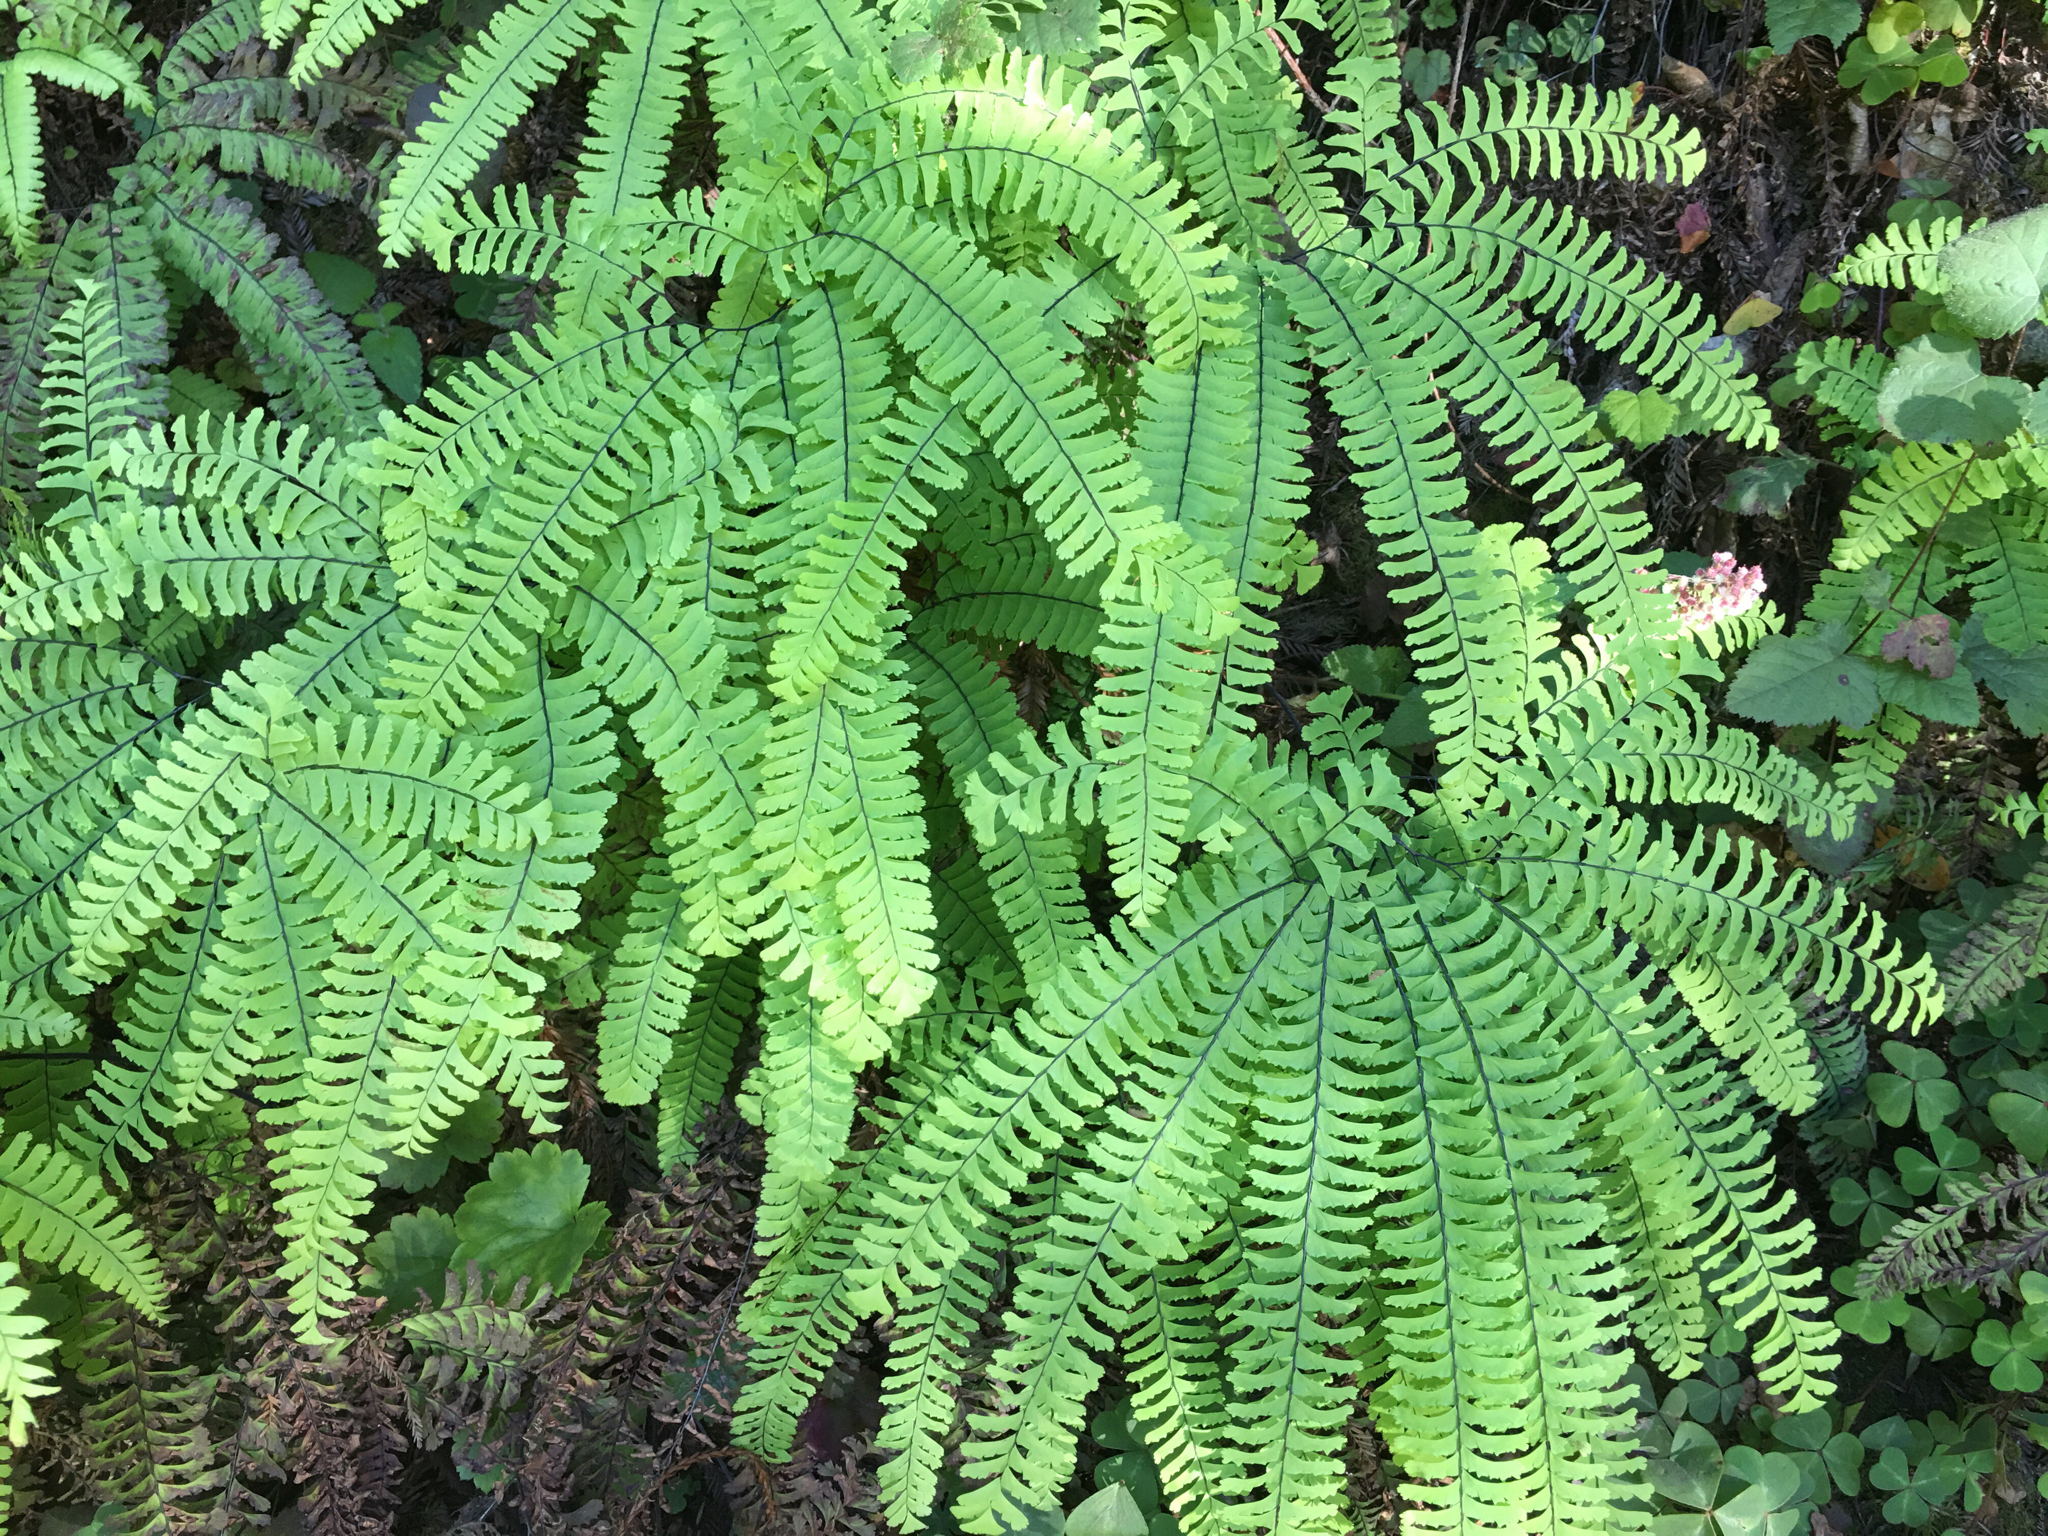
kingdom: Plantae
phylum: Tracheophyta
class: Polypodiopsida
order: Polypodiales
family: Pteridaceae
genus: Adiantum
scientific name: Adiantum aleuticum
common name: Aleutian maidenhair fern
